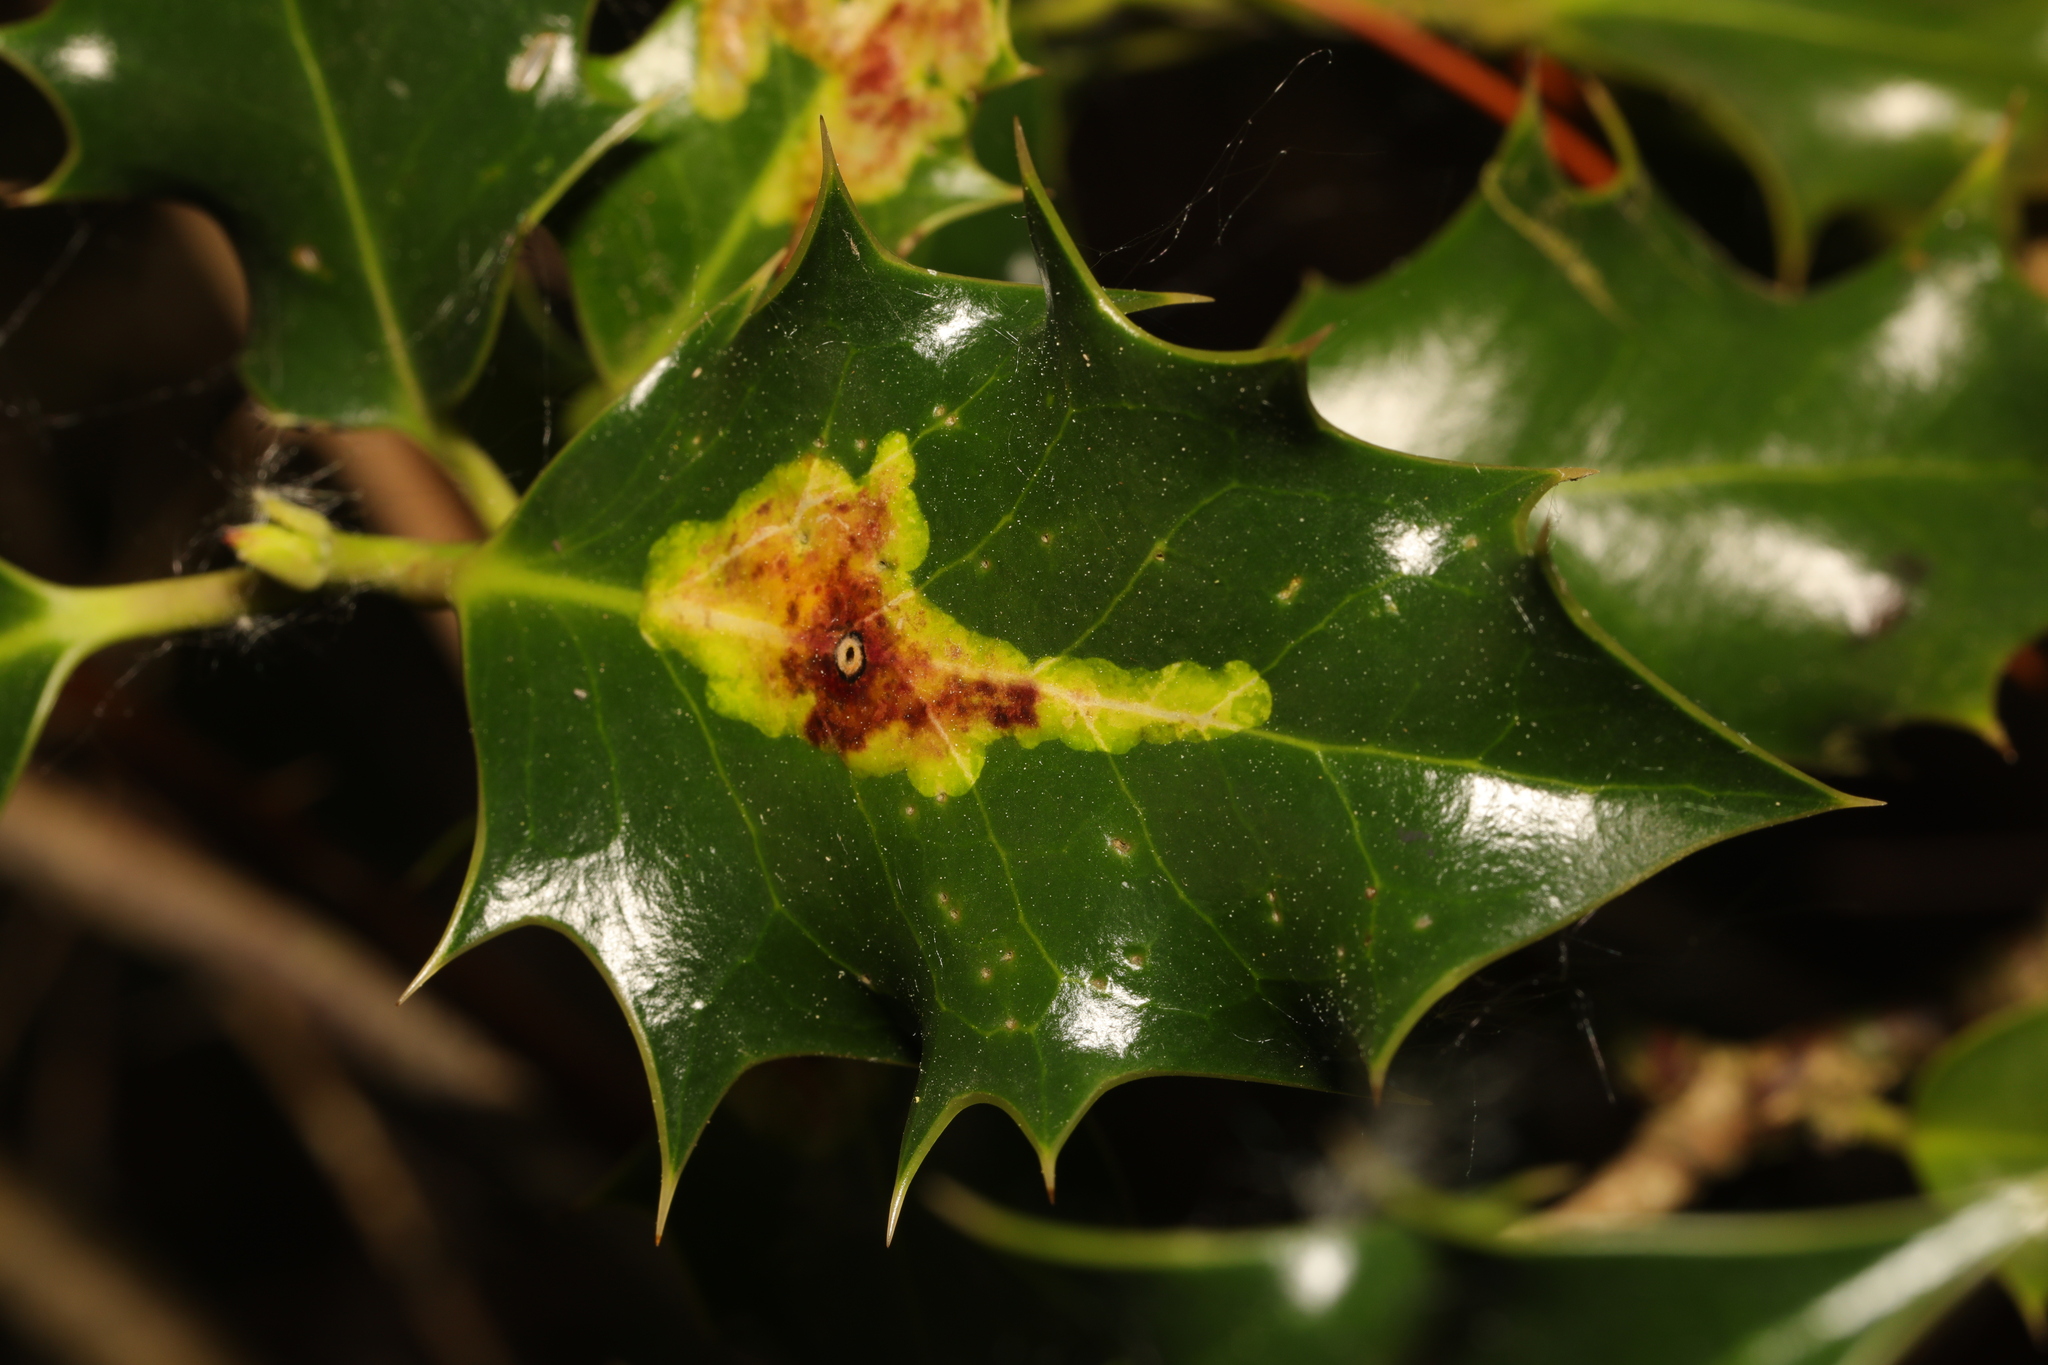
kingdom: Animalia
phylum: Arthropoda
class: Insecta
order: Diptera
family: Agromyzidae
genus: Phytomyza
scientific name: Phytomyza ilicis
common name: Holly leafminer
